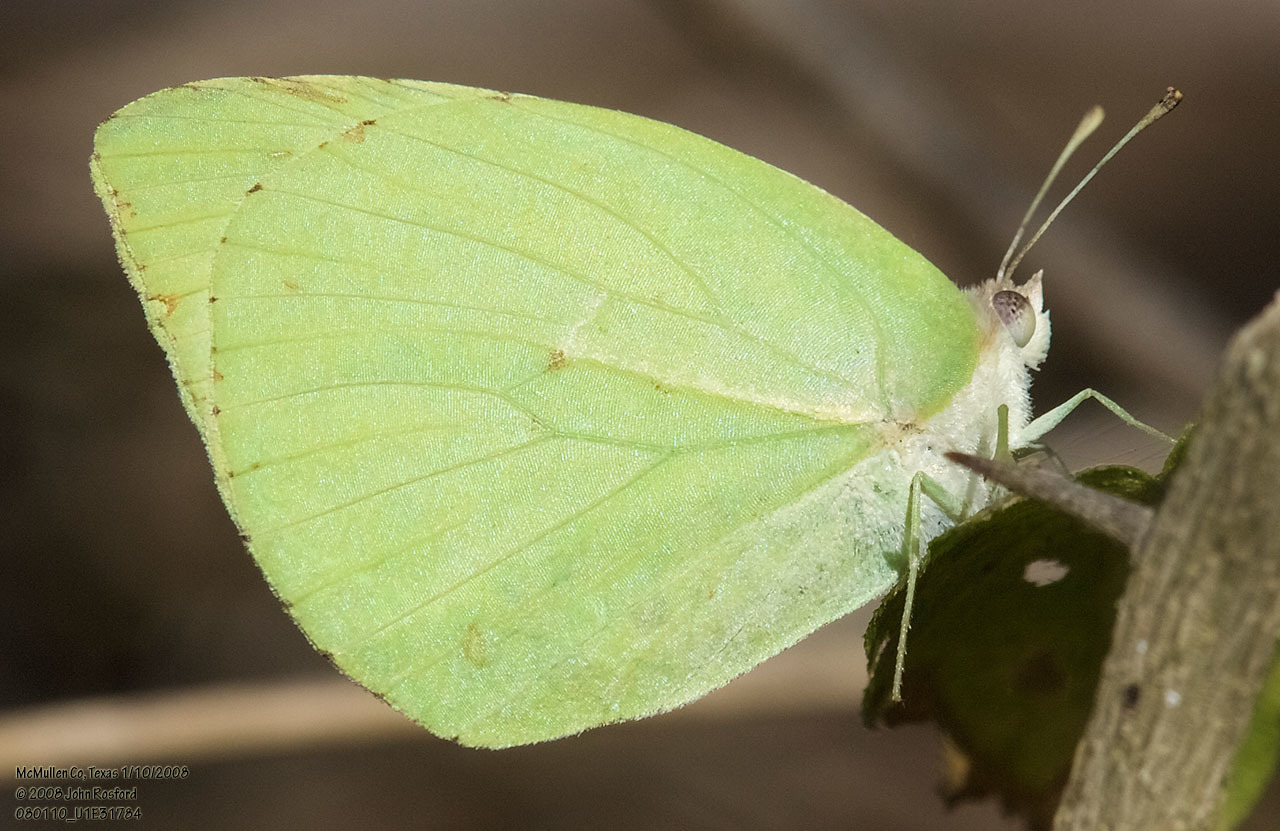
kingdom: Animalia
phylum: Arthropoda
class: Insecta
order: Lepidoptera
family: Pieridae
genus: Kricogonia
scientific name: Kricogonia lyside
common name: Guayacan sulphur,
